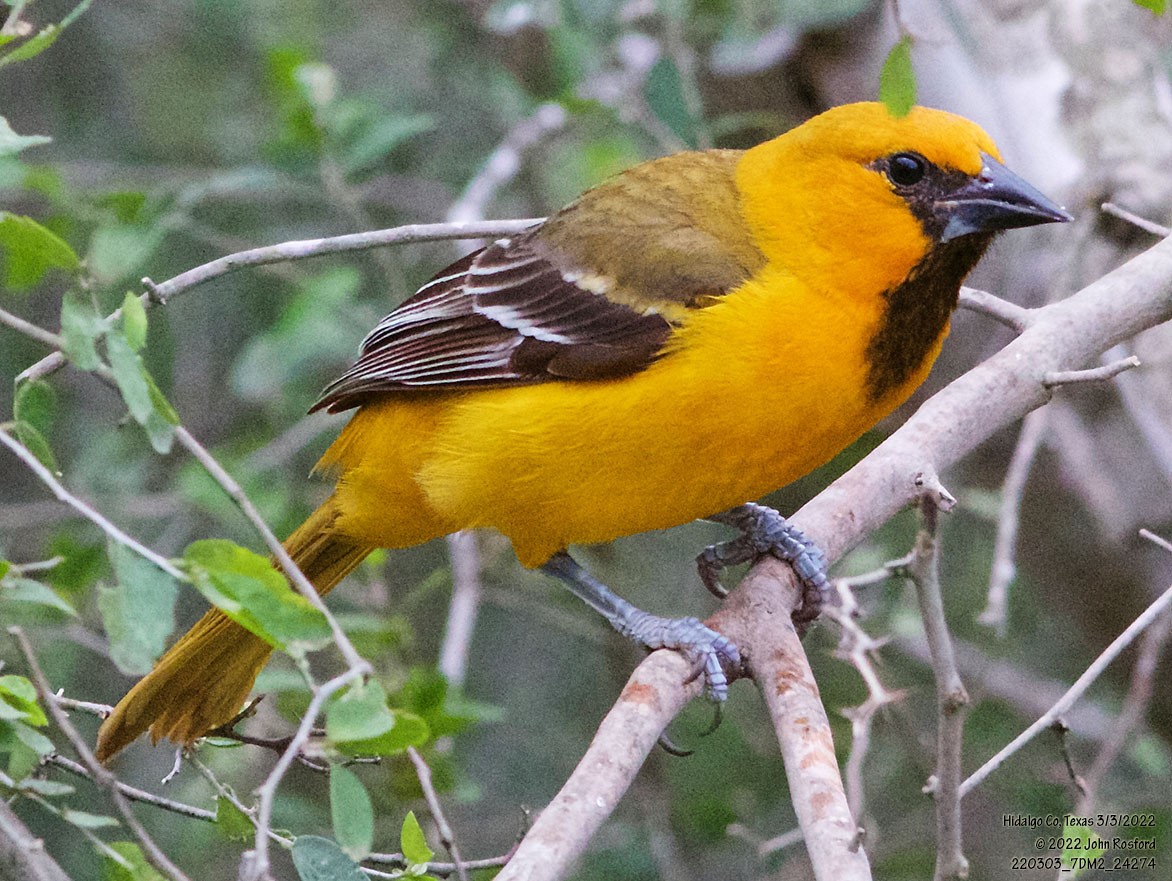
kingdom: Animalia
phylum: Chordata
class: Aves
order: Passeriformes
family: Icteridae
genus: Icterus
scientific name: Icterus gularis
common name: Altamira oriole
